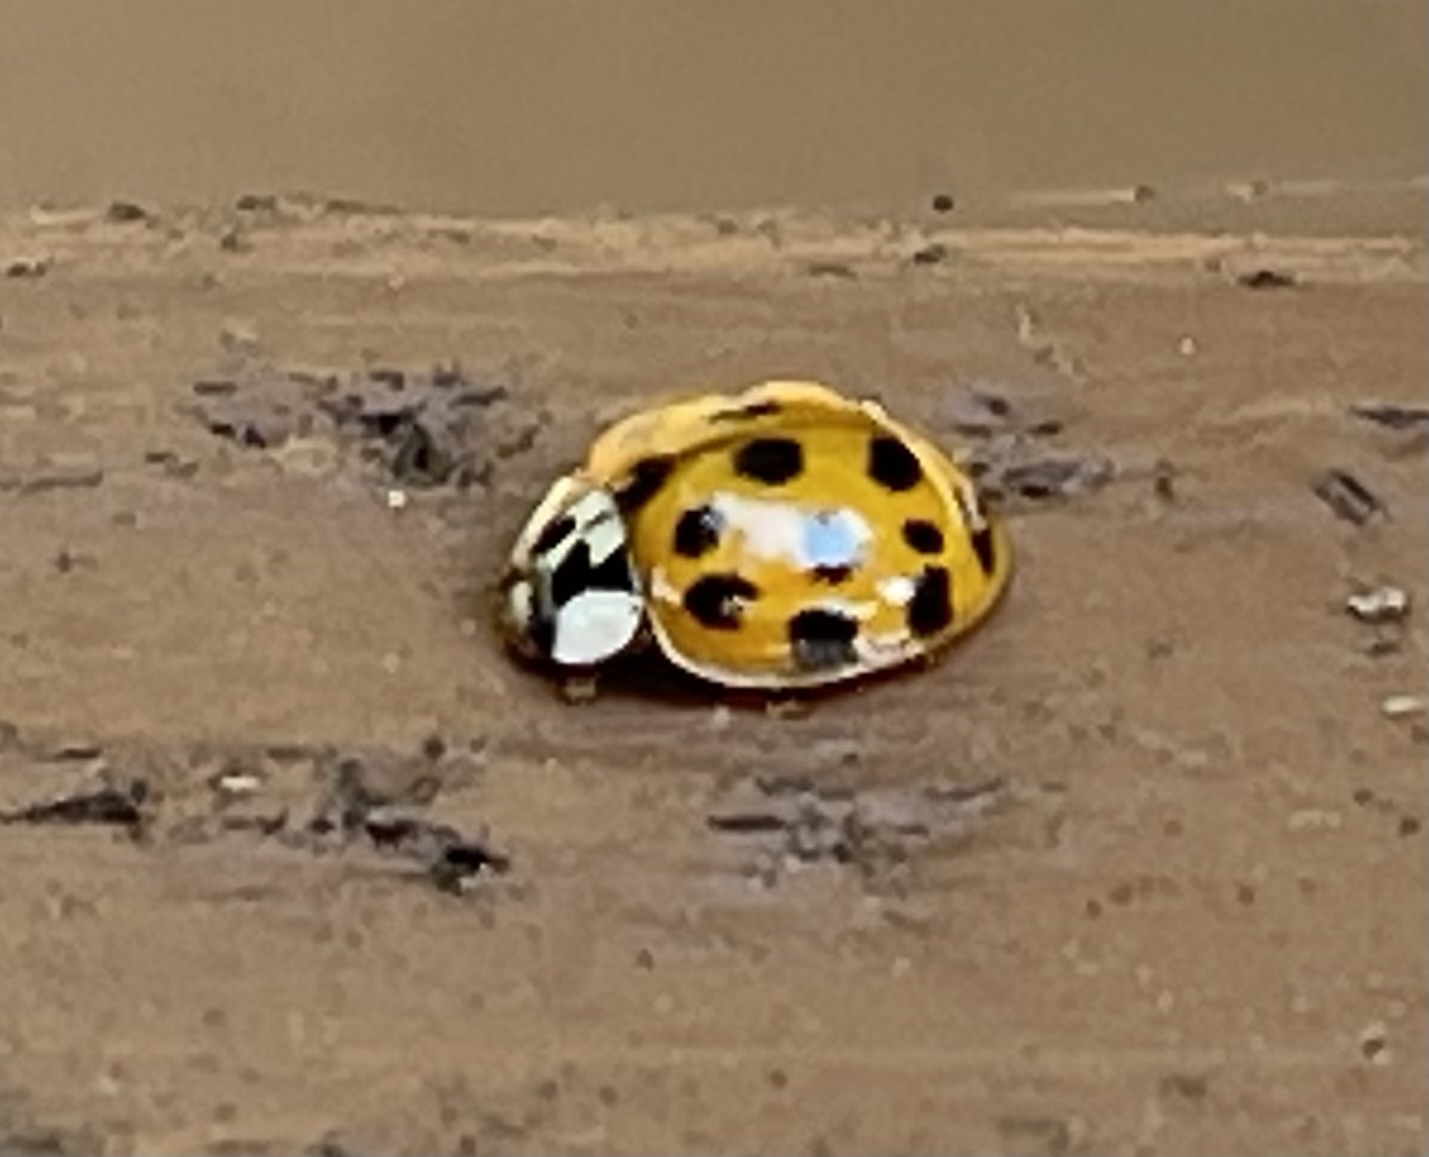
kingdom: Animalia
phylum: Arthropoda
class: Insecta
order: Coleoptera
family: Coccinellidae
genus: Harmonia
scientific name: Harmonia axyridis
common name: Harlequin ladybird
